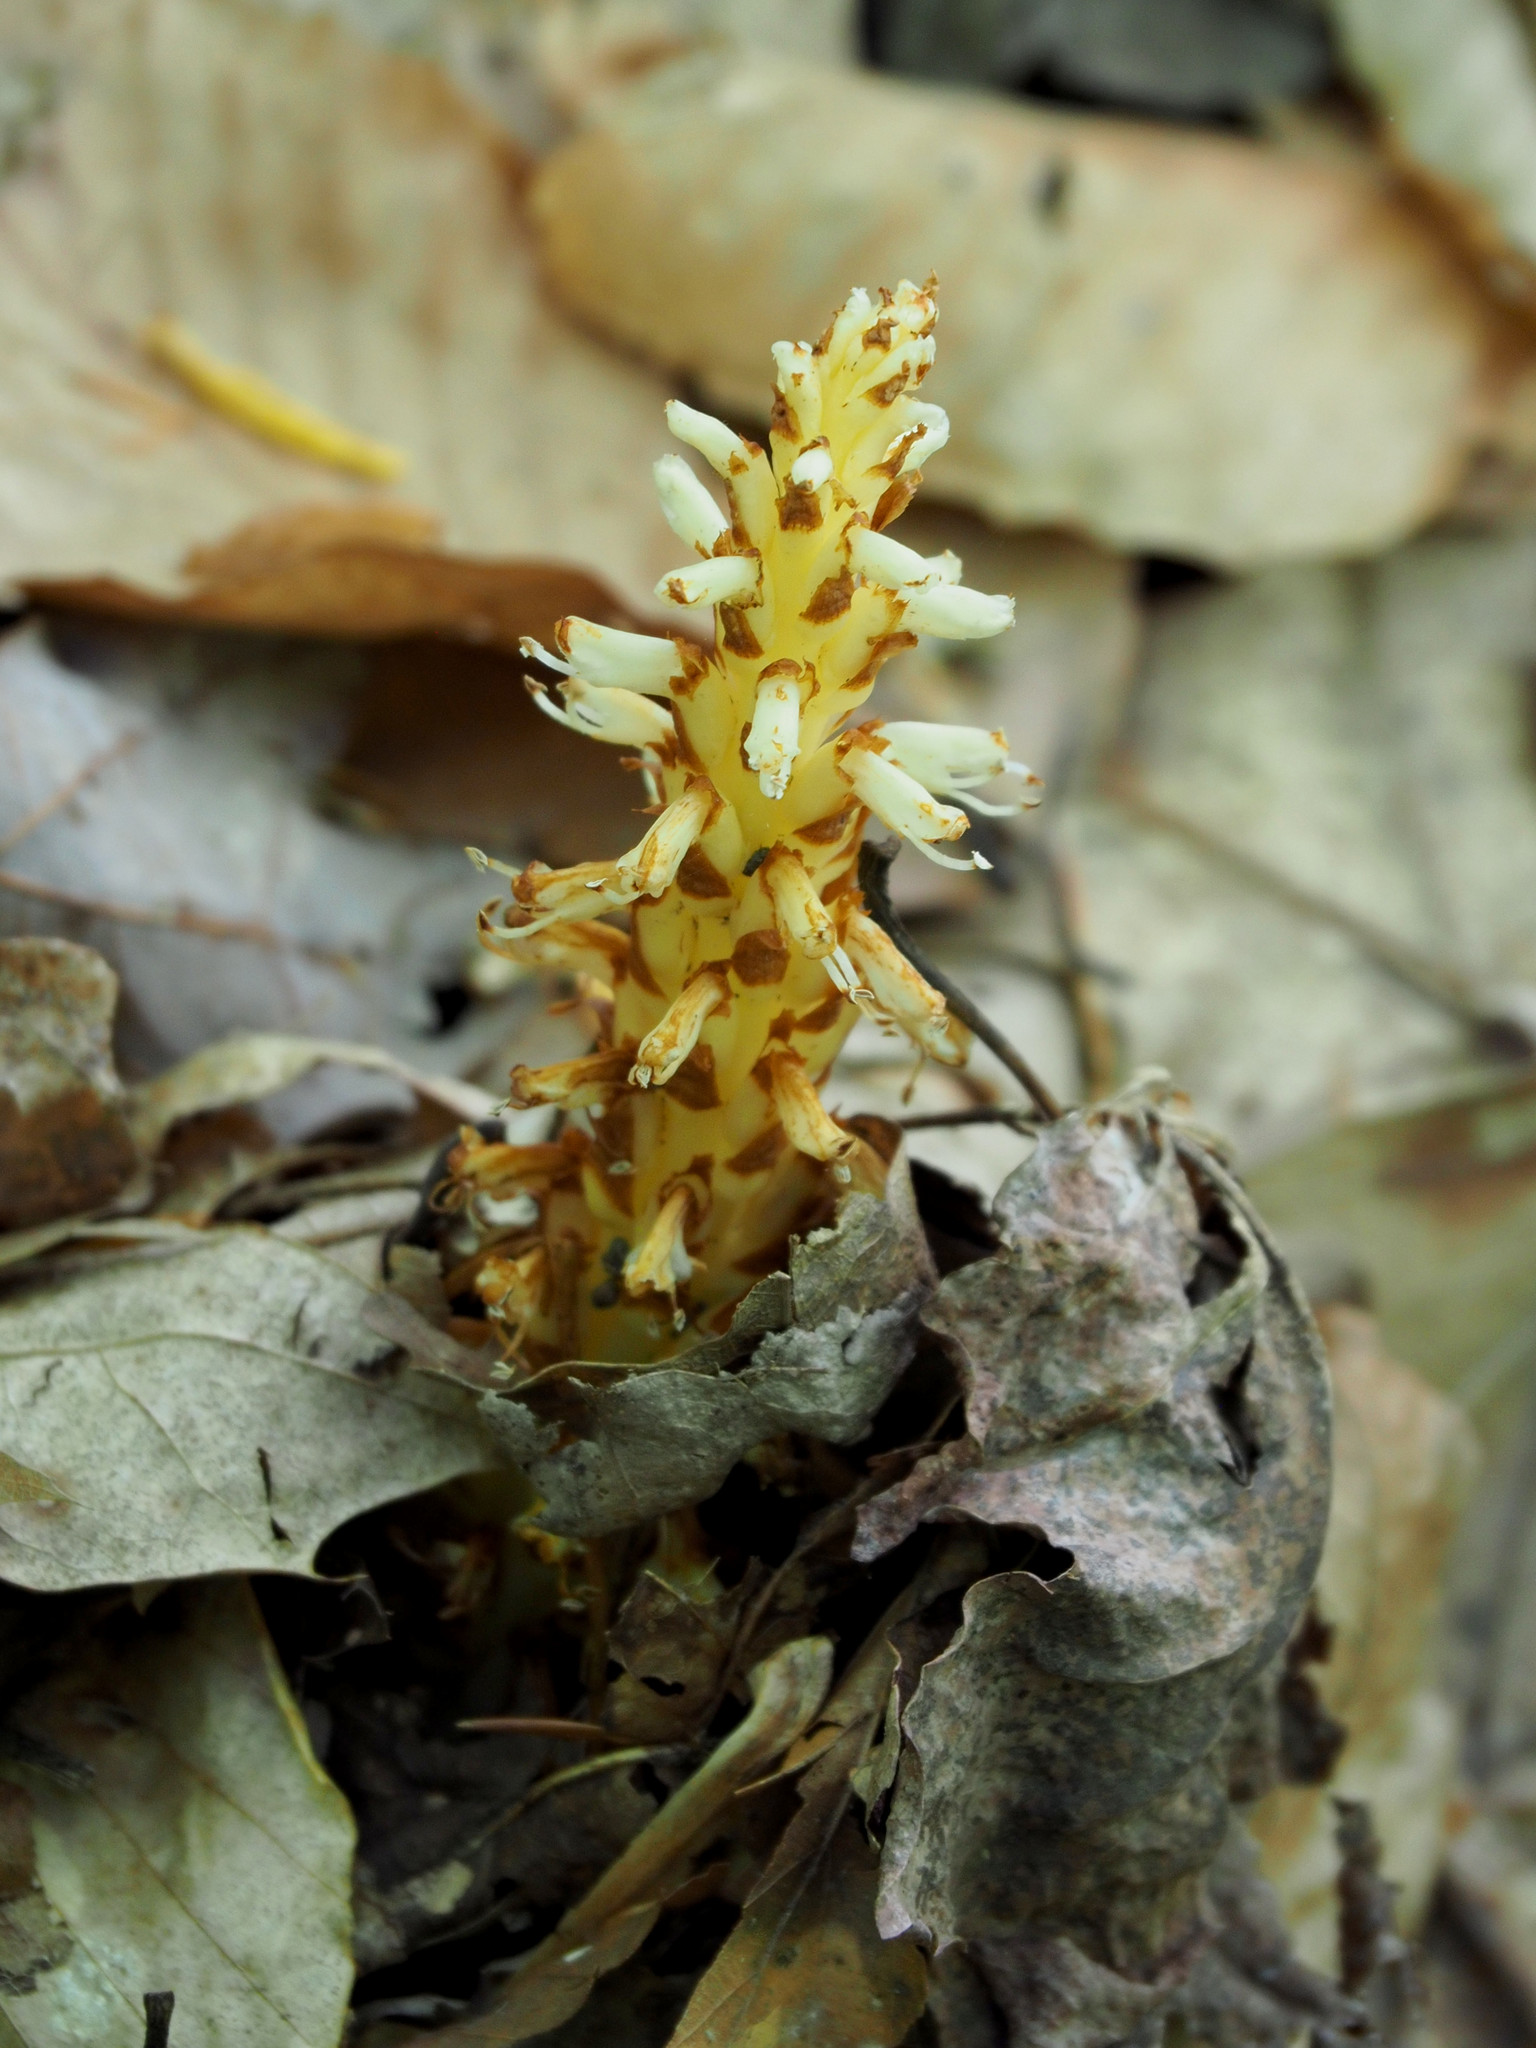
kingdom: Plantae
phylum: Tracheophyta
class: Magnoliopsida
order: Lamiales
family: Orobanchaceae
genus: Conopholis
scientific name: Conopholis americana
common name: American cancer-root
